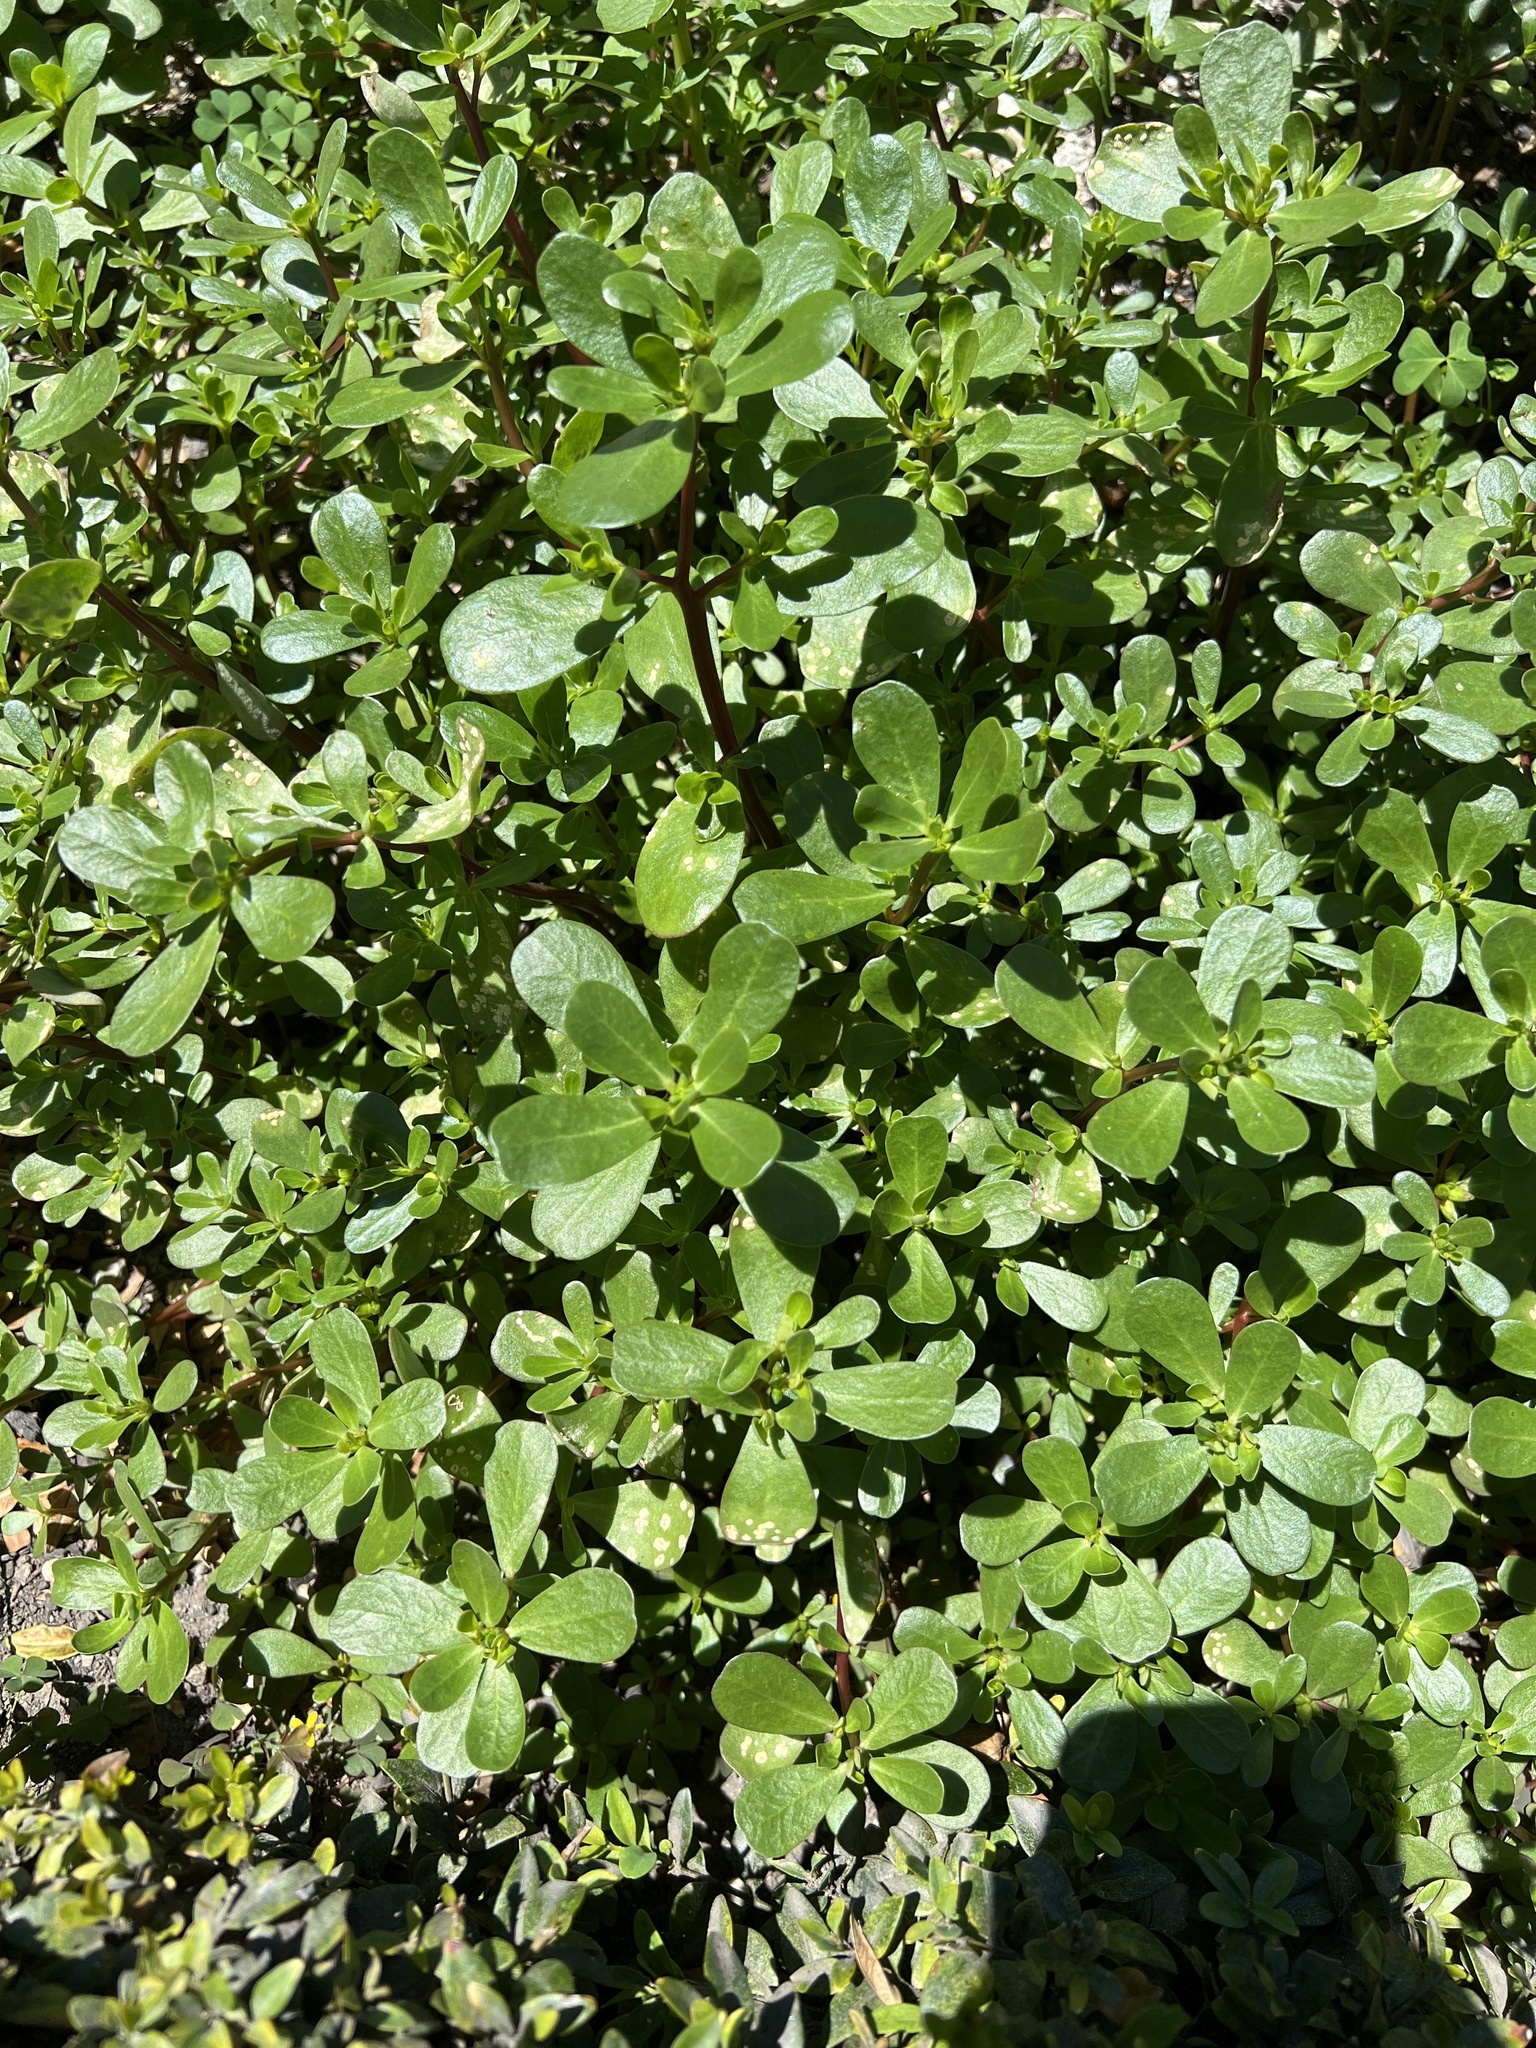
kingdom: Plantae
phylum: Tracheophyta
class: Magnoliopsida
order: Caryophyllales
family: Portulacaceae
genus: Portulaca
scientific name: Portulaca oleracea
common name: Common purslane
